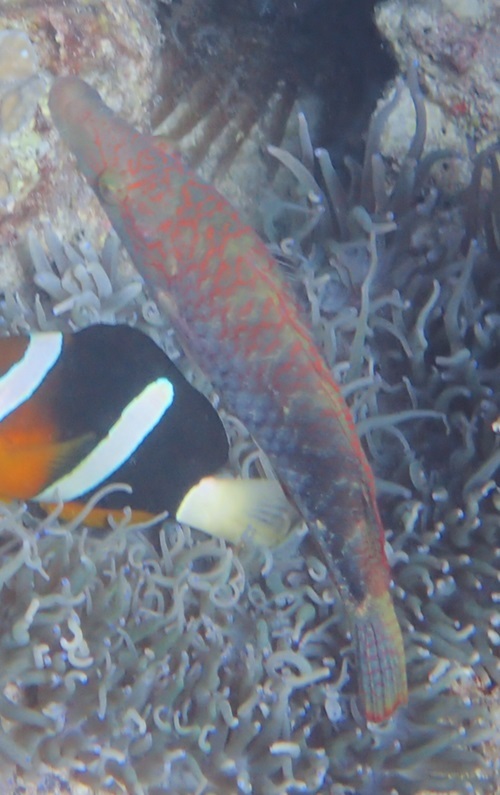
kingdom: Animalia
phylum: Chordata
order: Perciformes
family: Labridae
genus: Oxycheilinus
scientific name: Oxycheilinus celebicus
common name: Celebes maori wrasse
